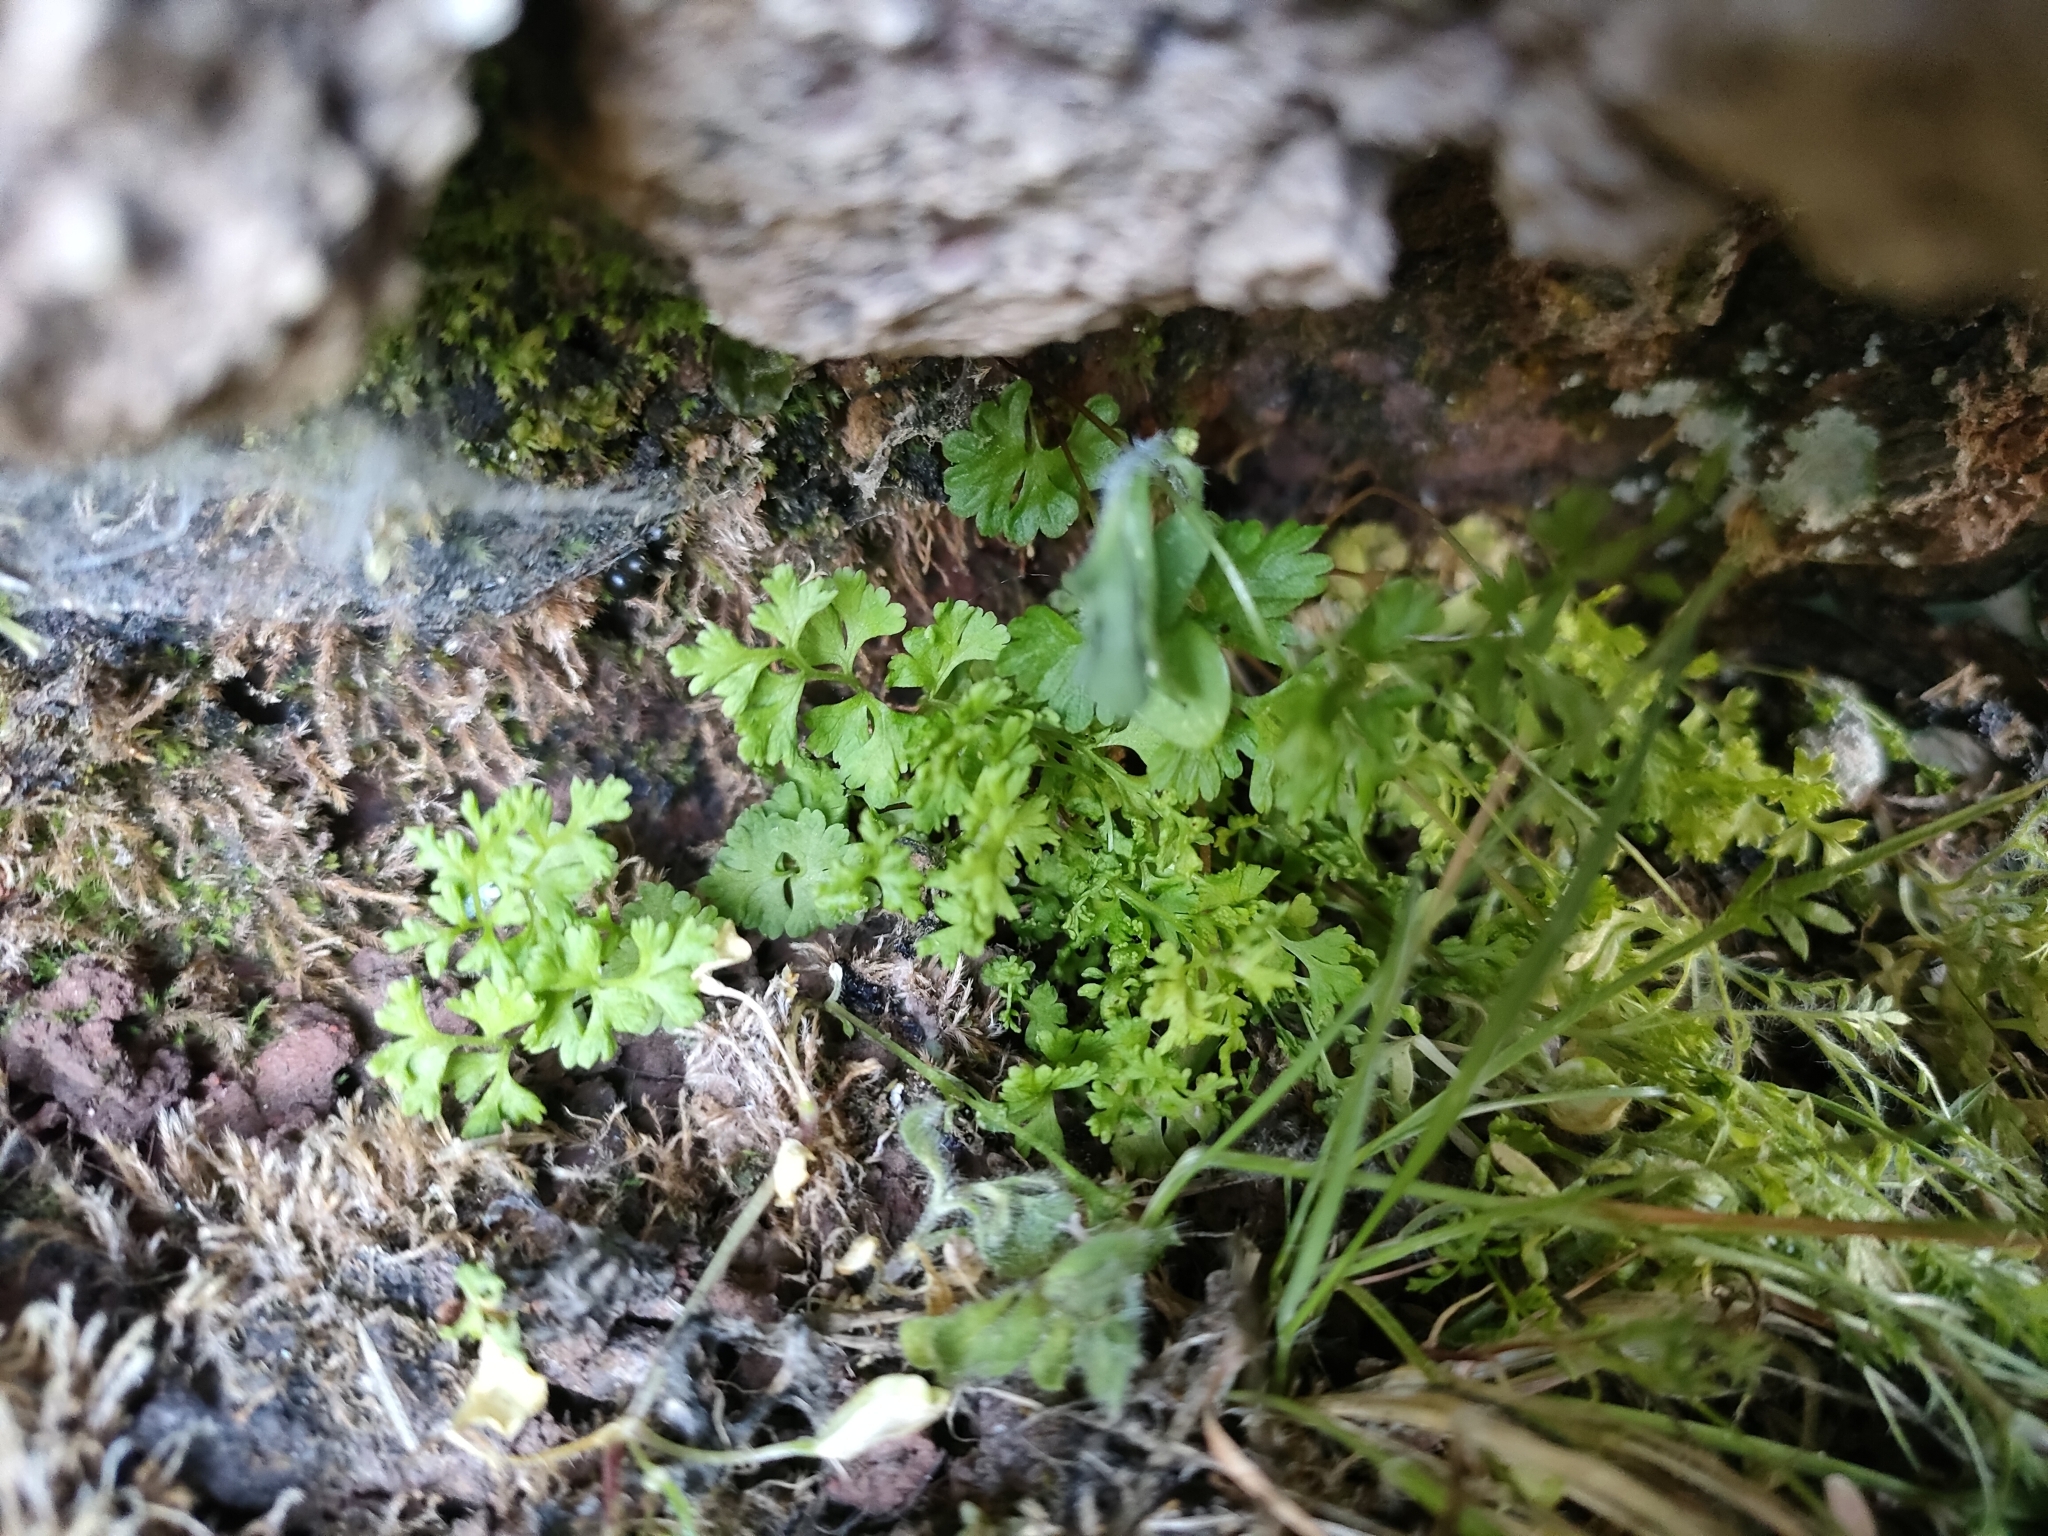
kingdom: Plantae
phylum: Tracheophyta
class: Polypodiopsida
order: Polypodiales
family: Pteridaceae
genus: Anogramma
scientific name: Anogramma leptophylla
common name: Jersey fern
